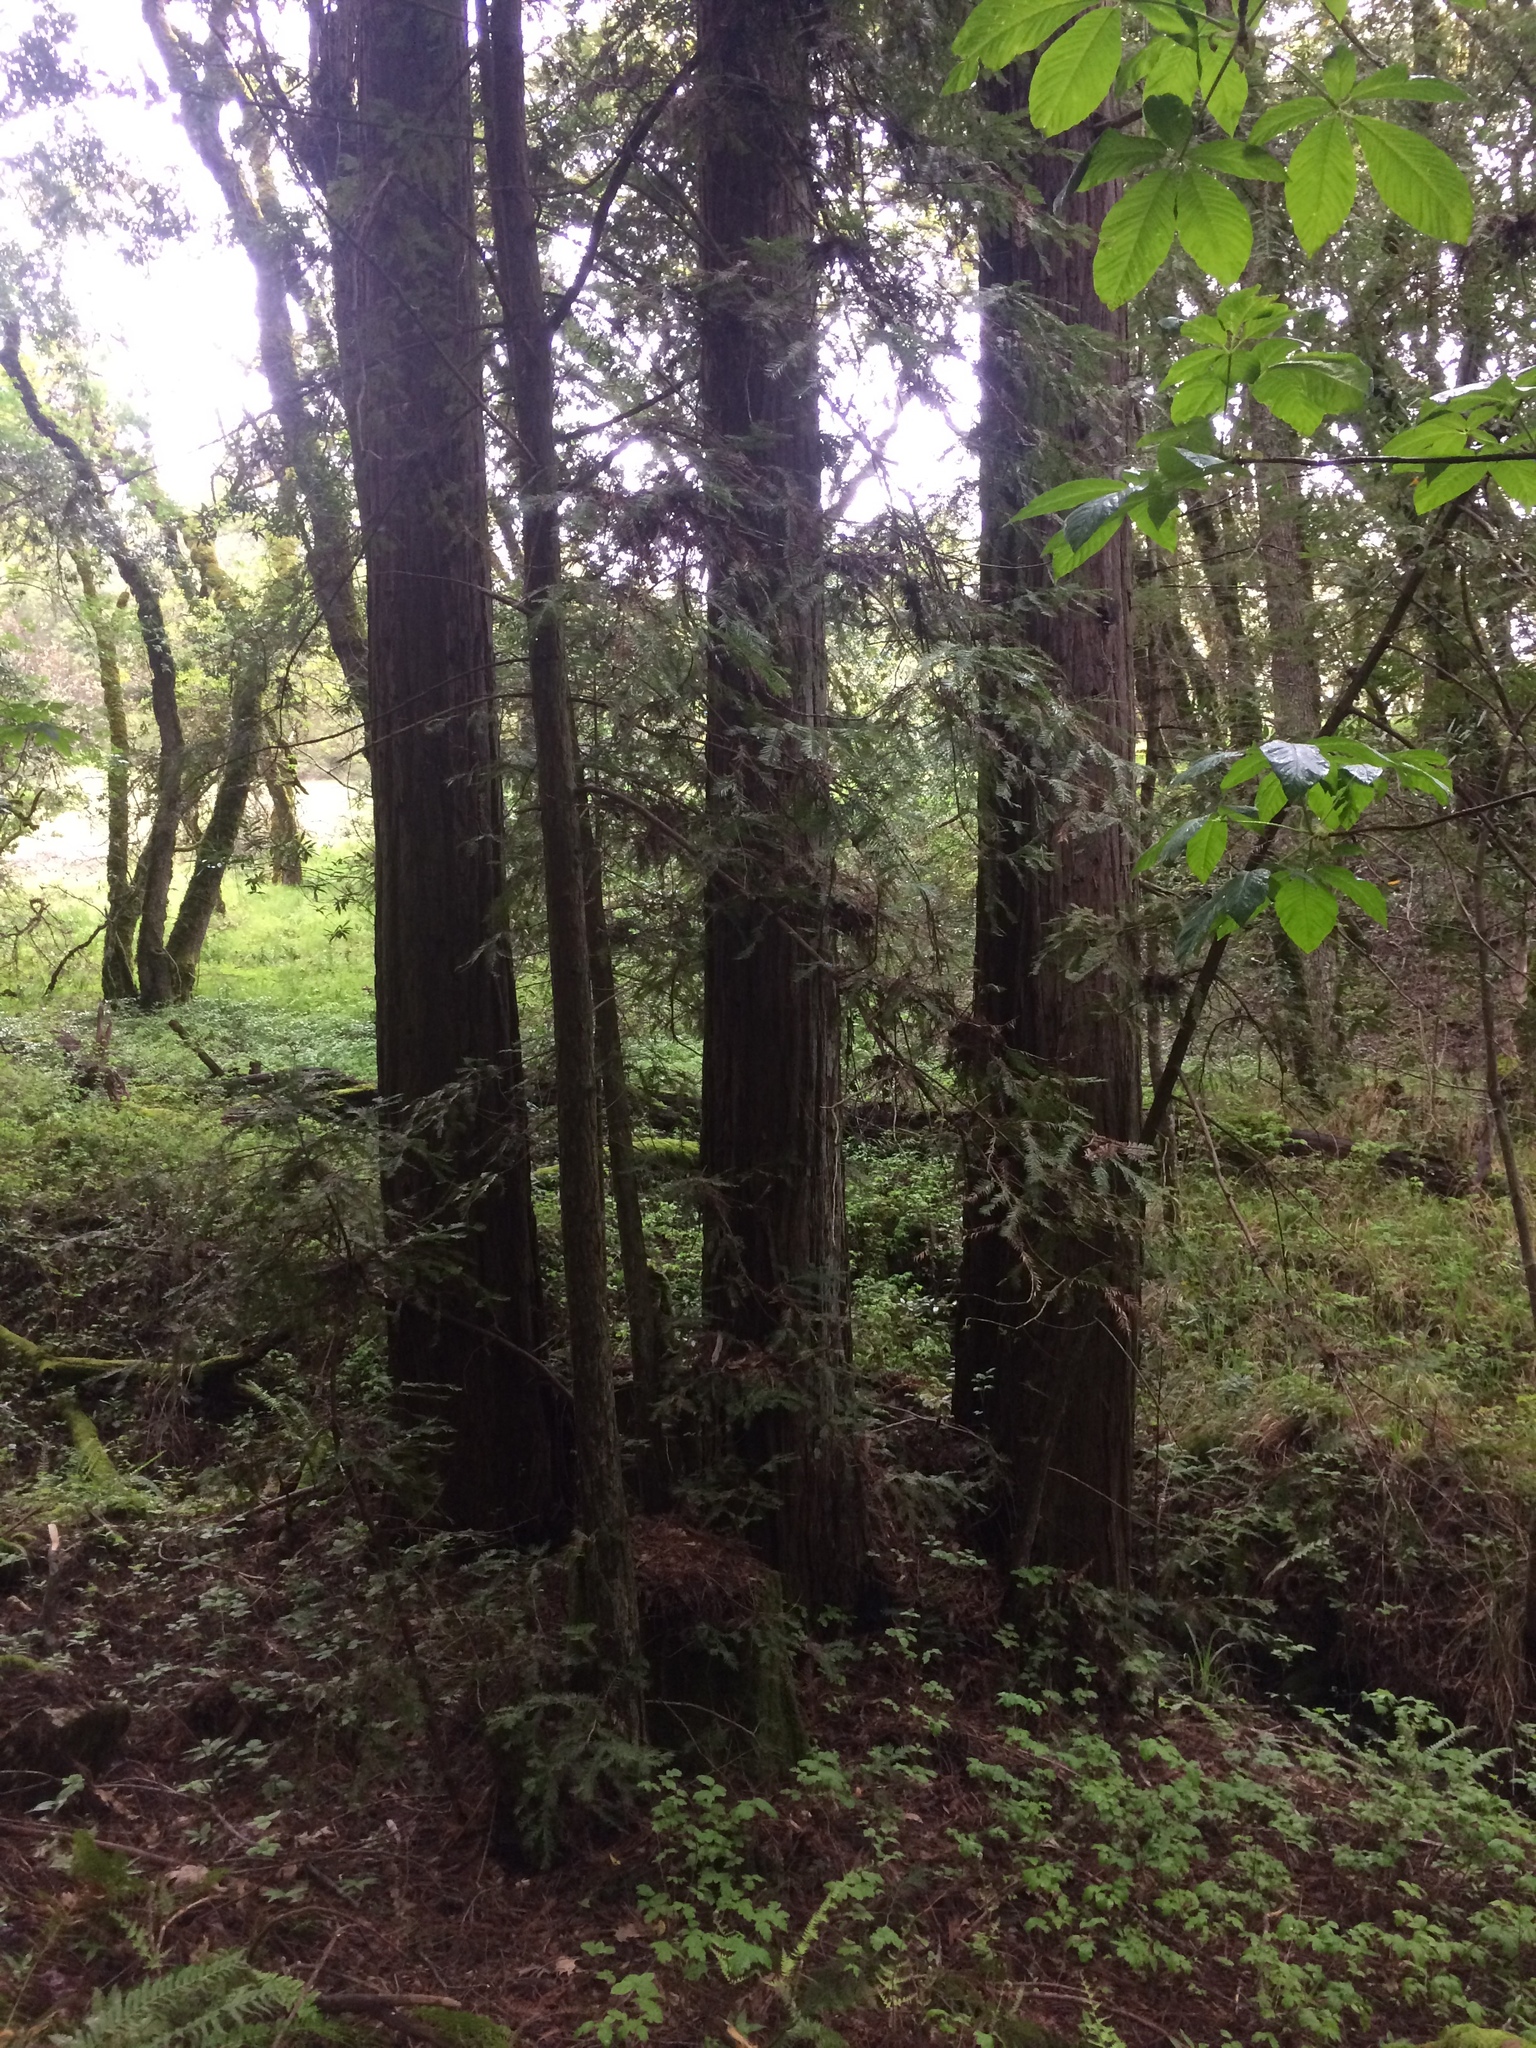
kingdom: Plantae
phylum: Tracheophyta
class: Pinopsida
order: Pinales
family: Cupressaceae
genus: Sequoia
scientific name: Sequoia sempervirens
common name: Coast redwood
